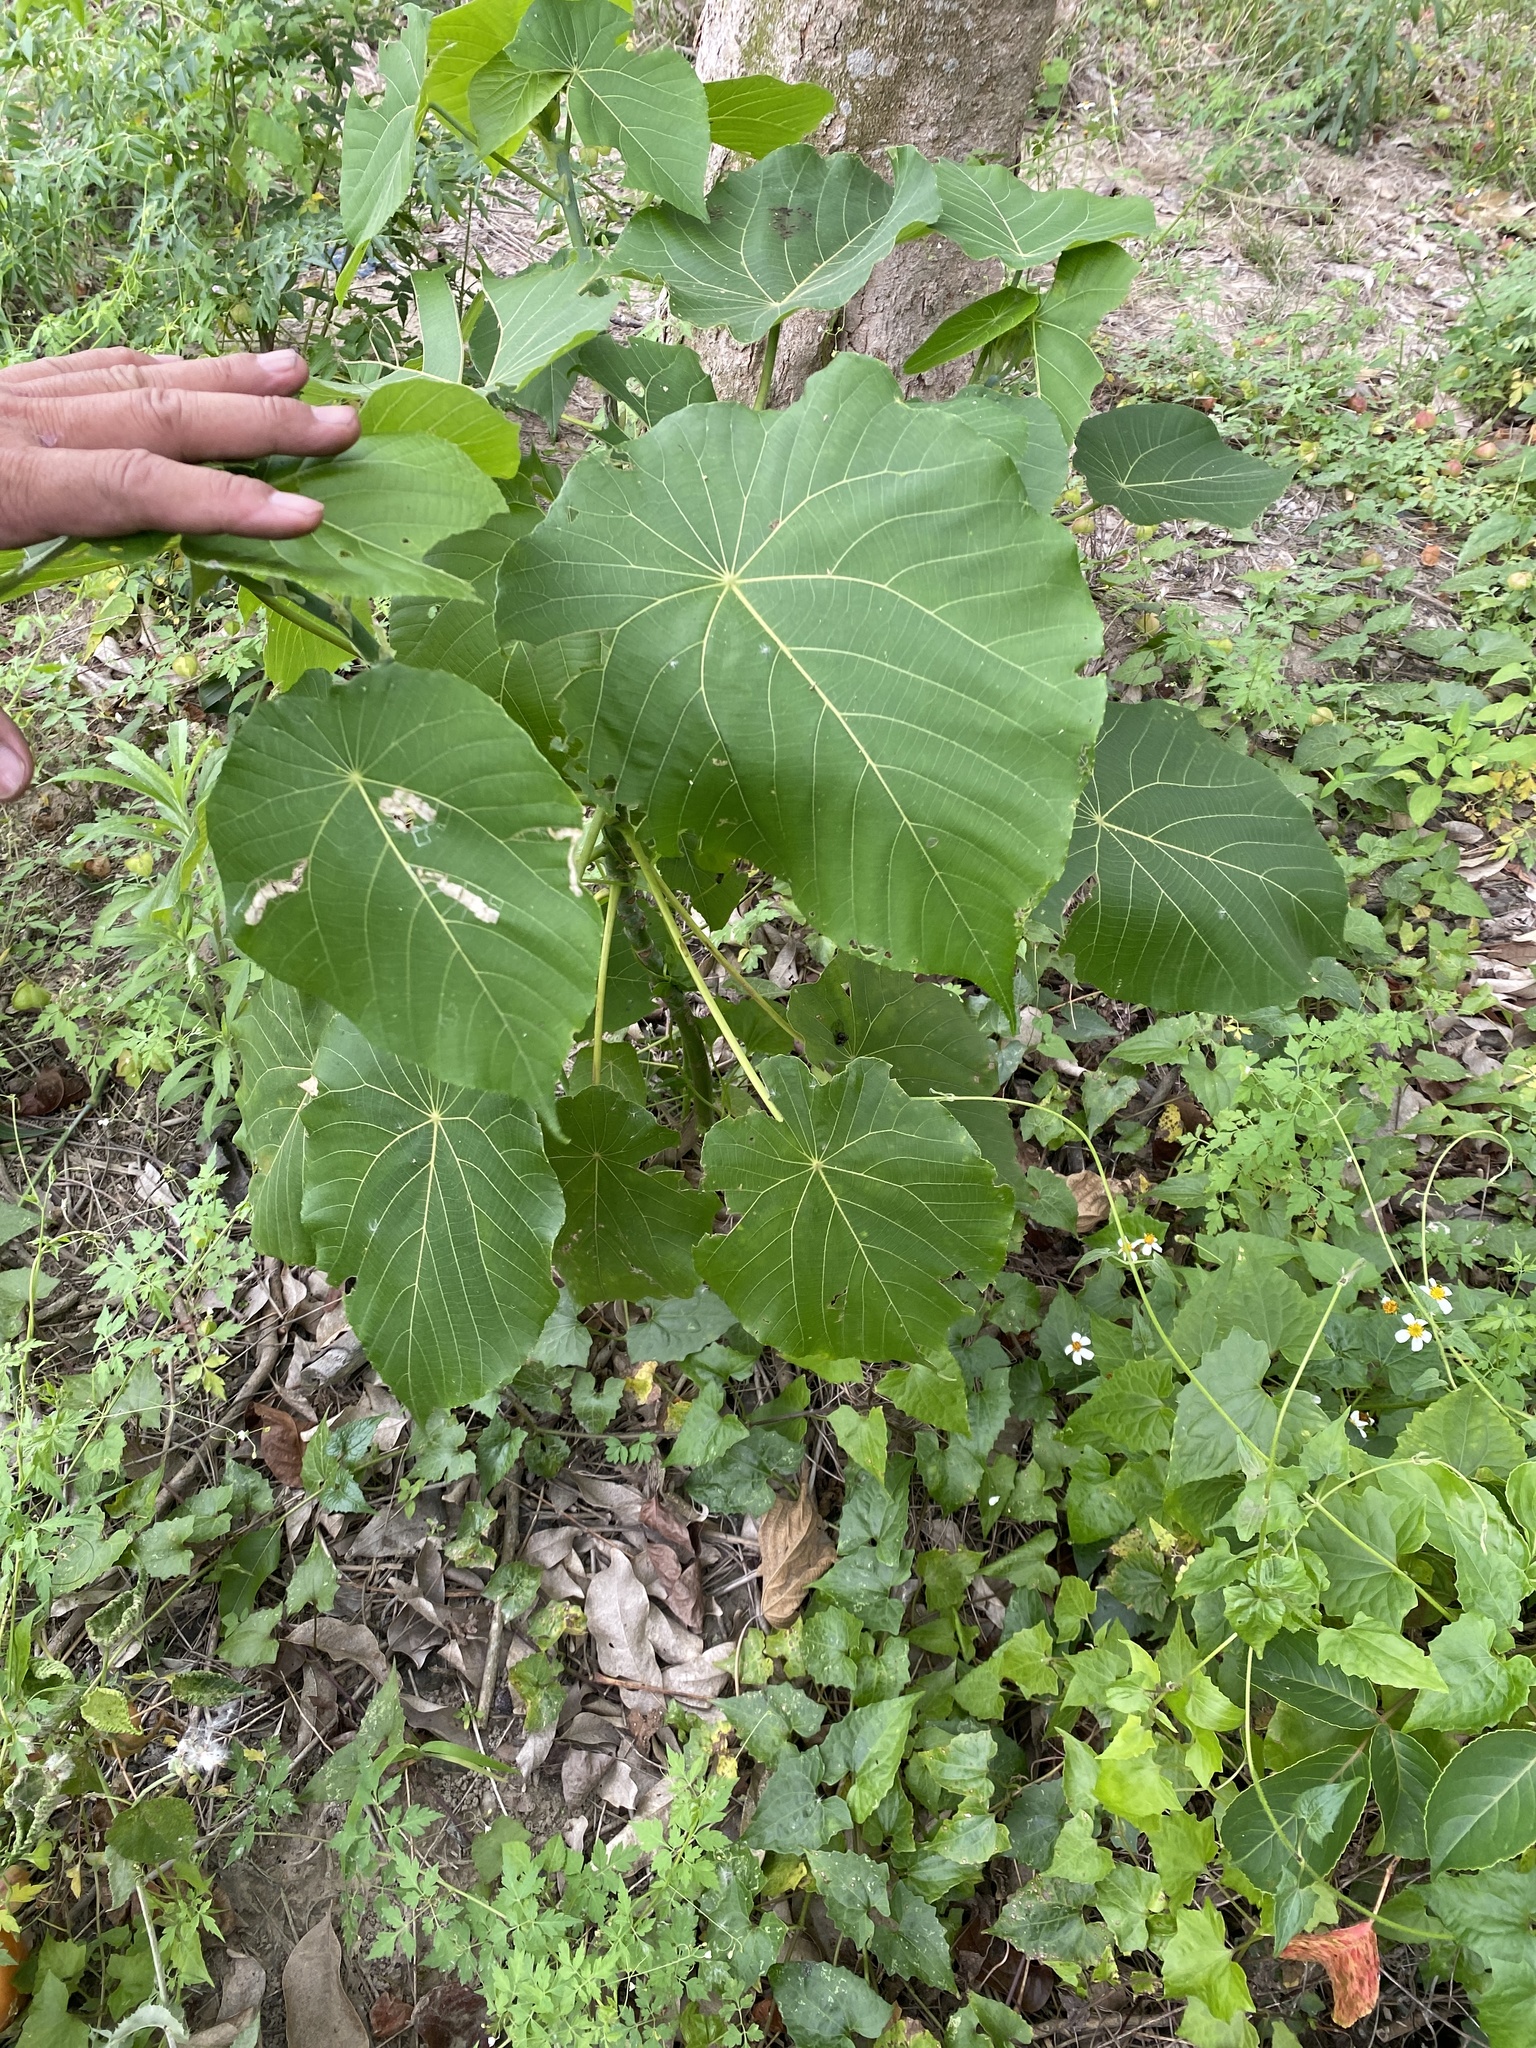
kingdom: Plantae
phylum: Tracheophyta
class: Magnoliopsida
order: Malpighiales
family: Euphorbiaceae
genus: Macaranga
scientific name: Macaranga tanarius
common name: Parasol leaf tree
